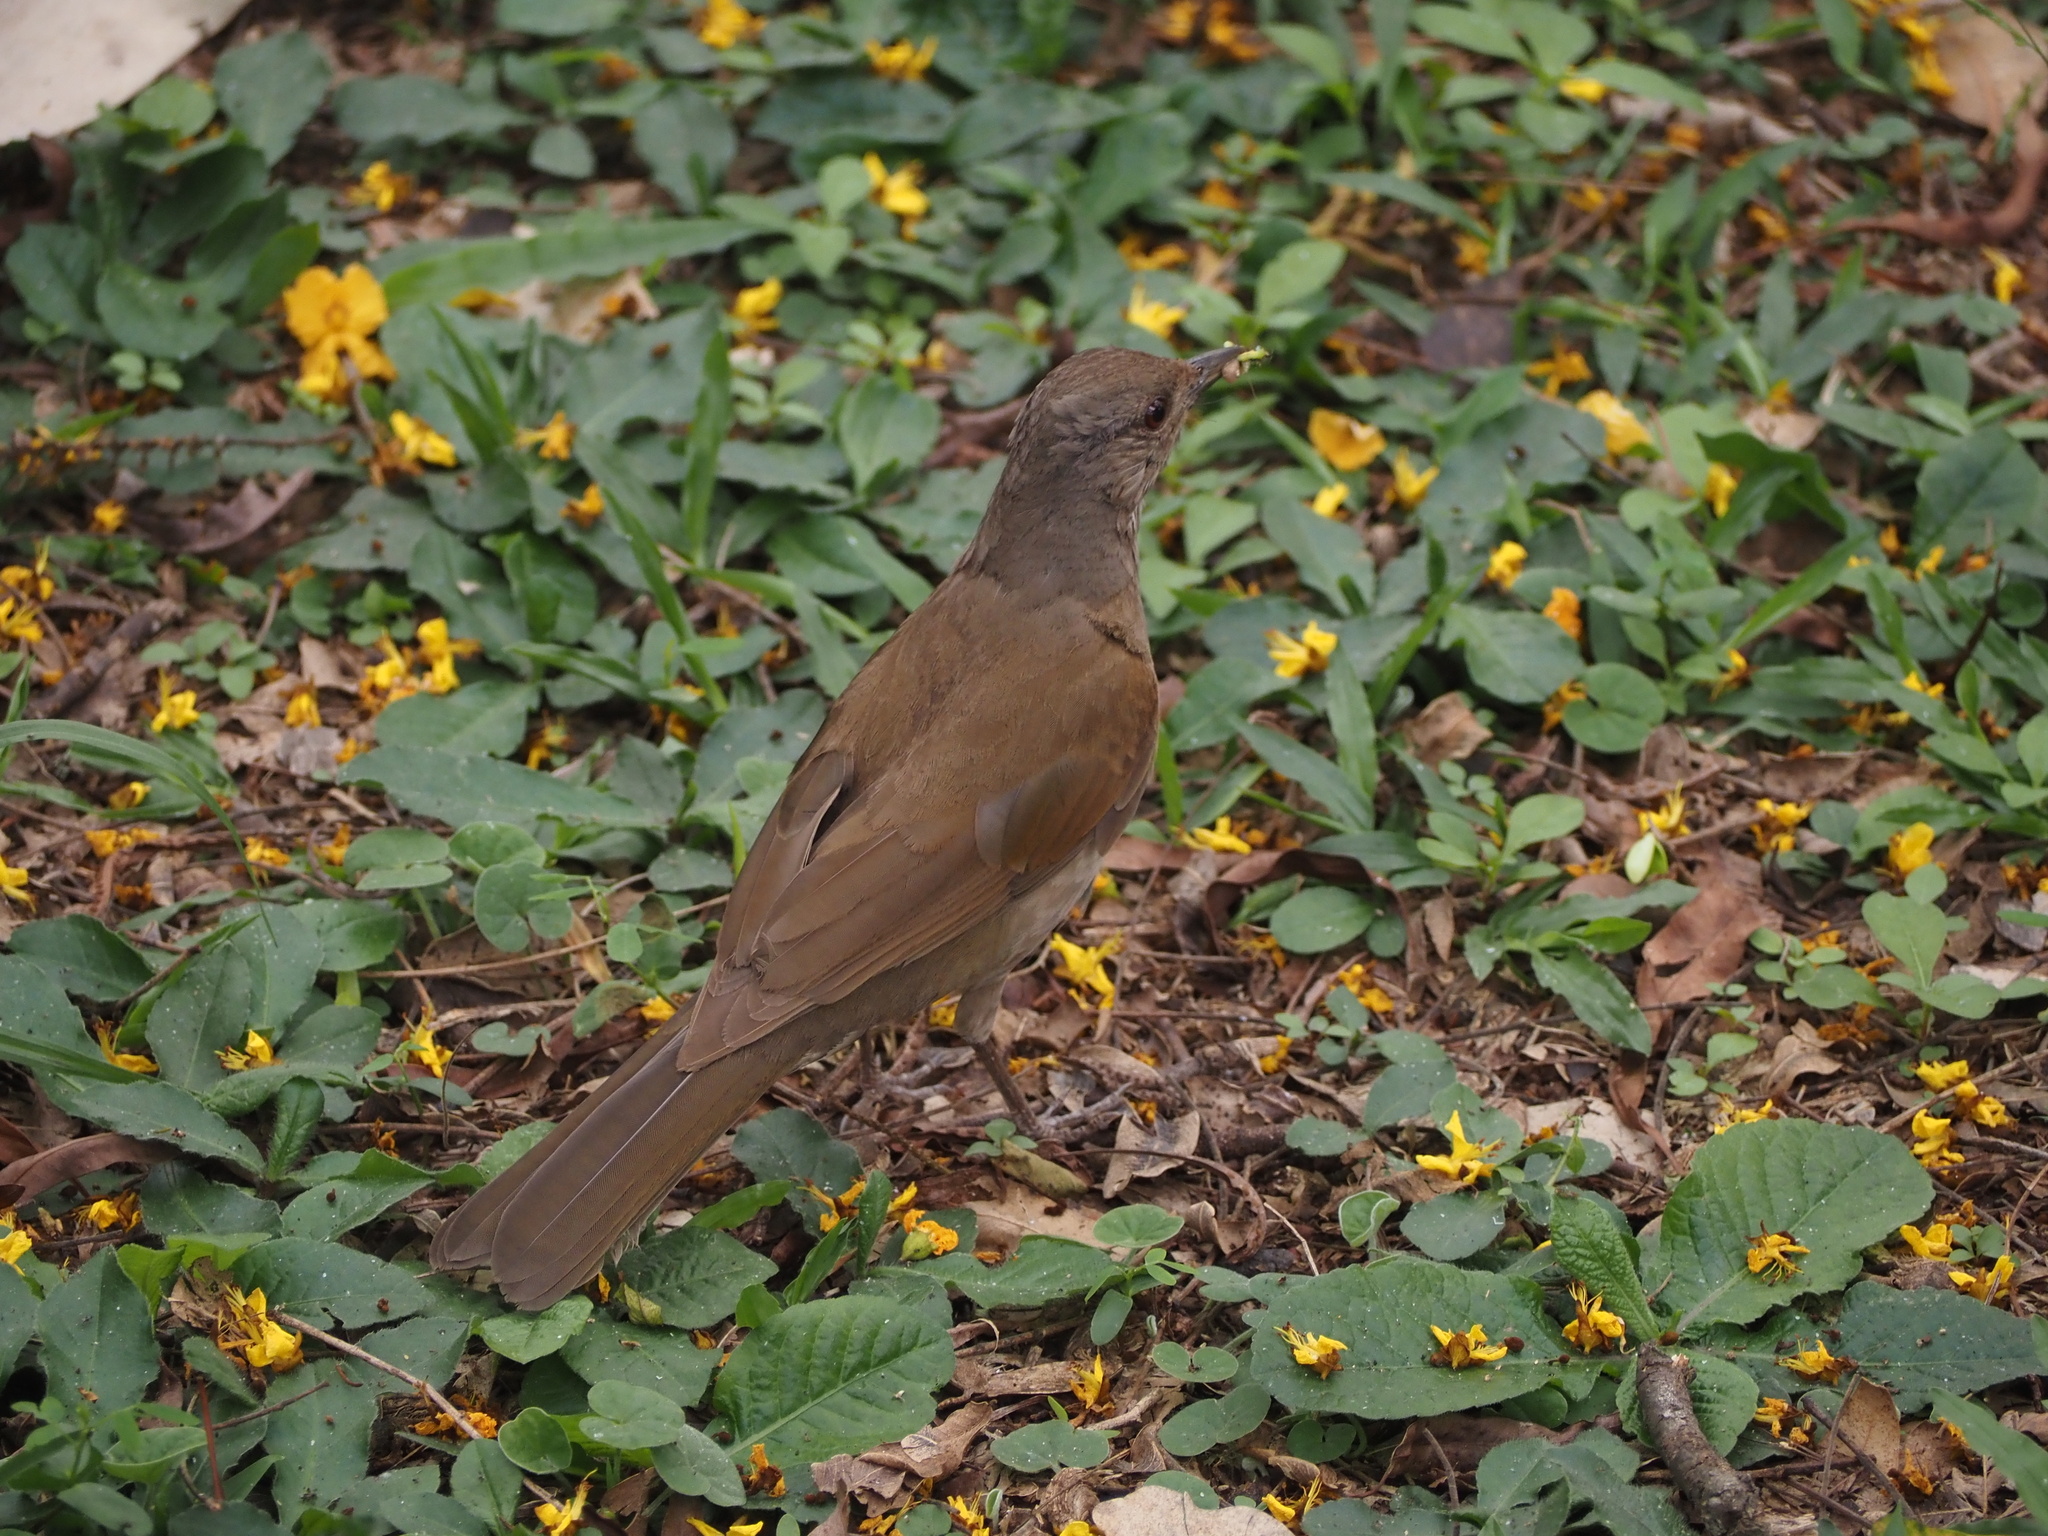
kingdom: Animalia
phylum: Chordata
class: Aves
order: Passeriformes
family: Turdidae
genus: Turdus
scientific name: Turdus leucomelas
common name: Pale-breasted thrush
